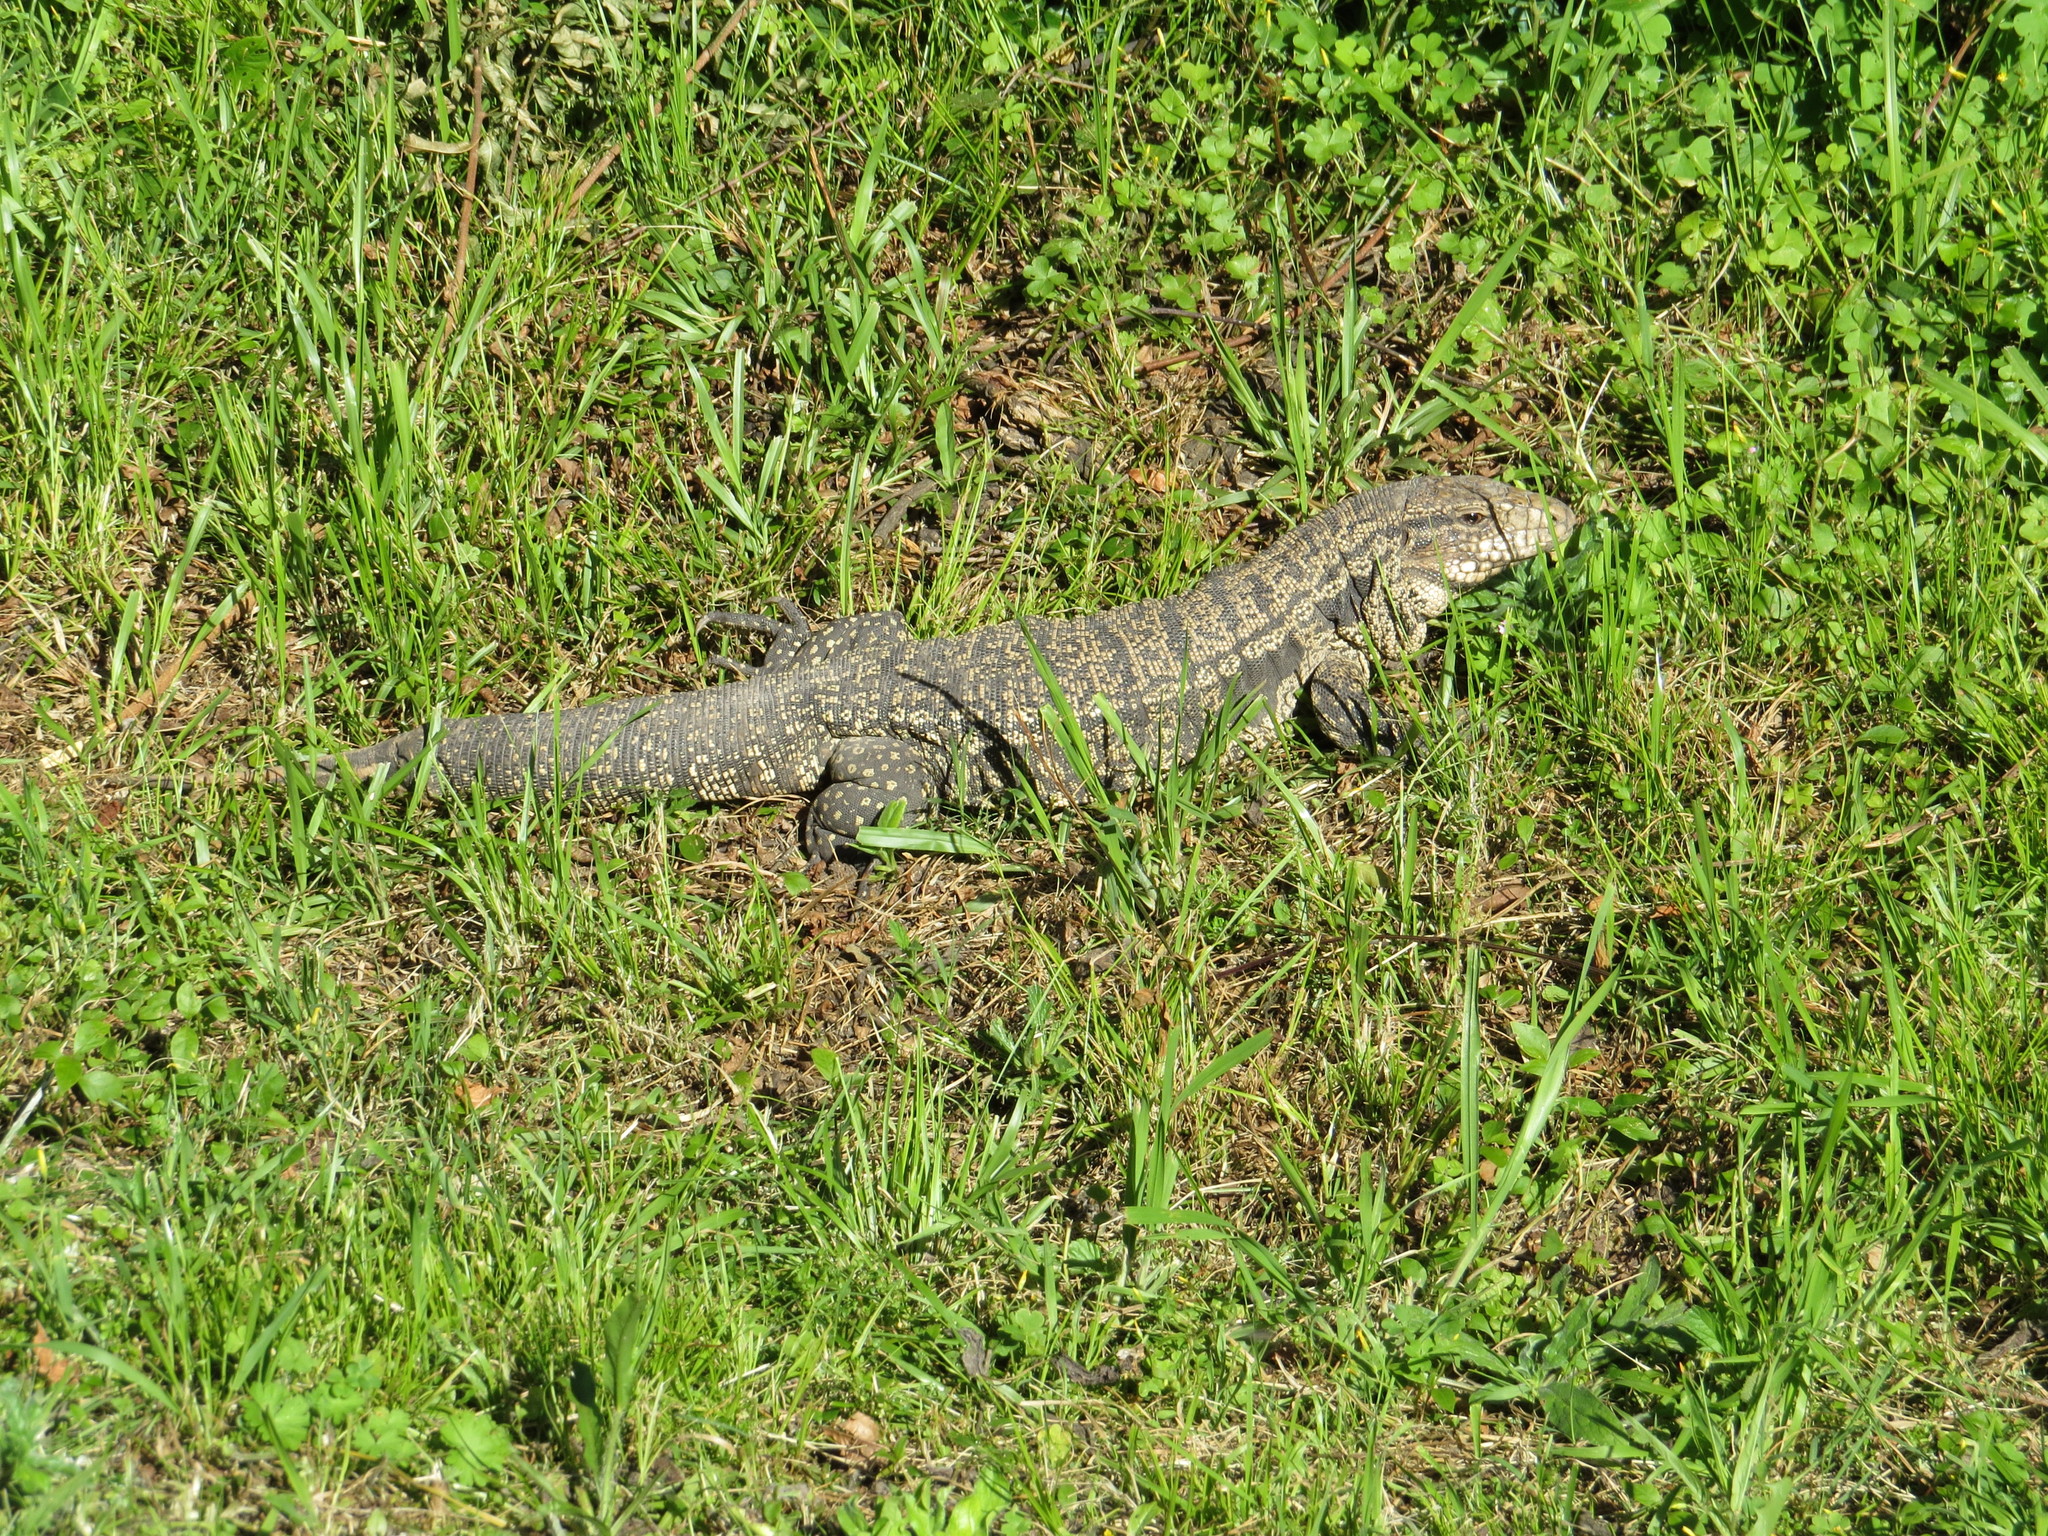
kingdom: Animalia
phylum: Chordata
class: Squamata
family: Teiidae
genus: Salvator
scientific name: Salvator merianae
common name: Argentine black and white tegu
